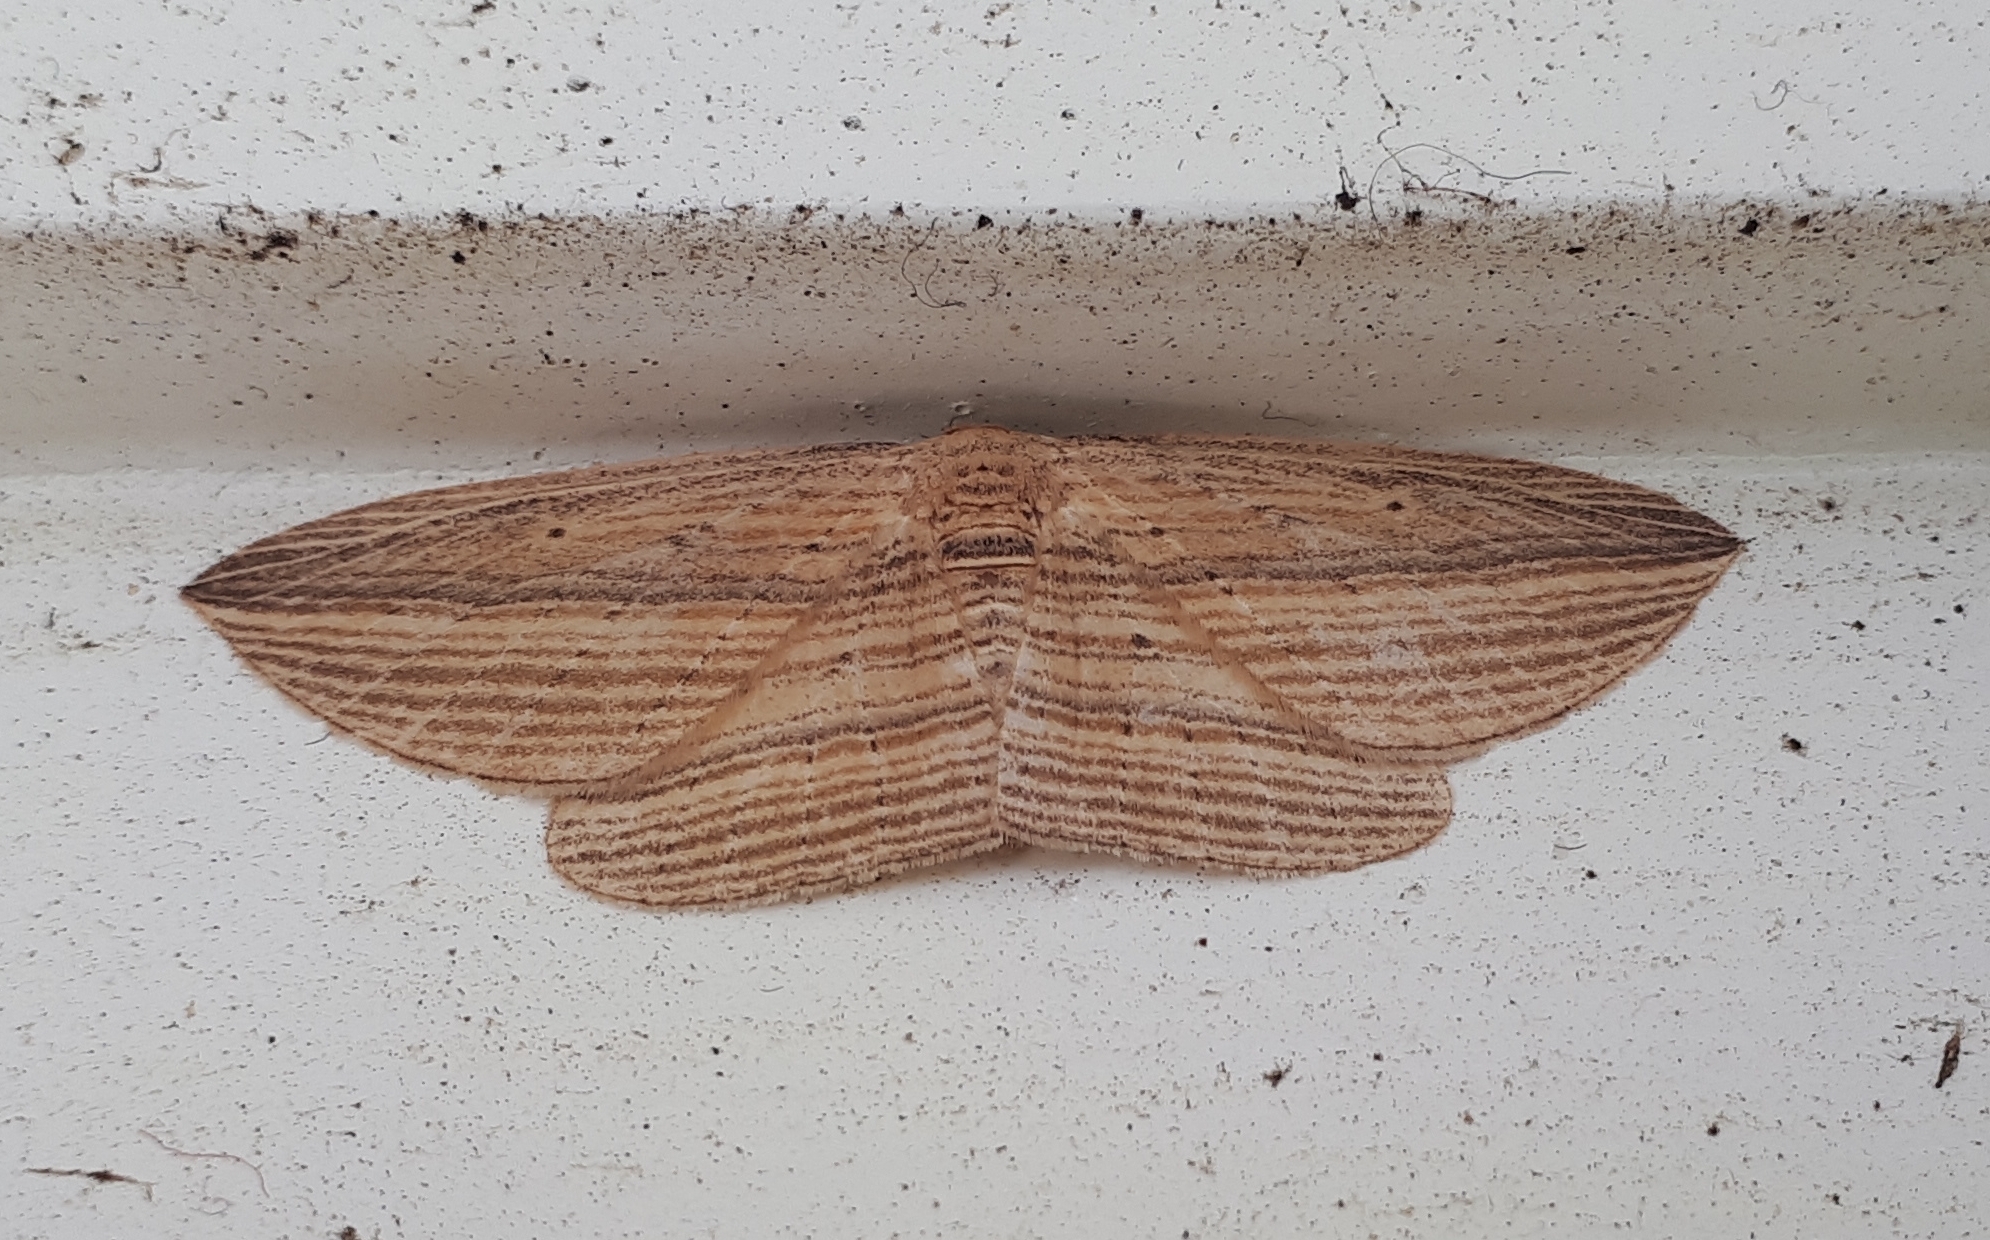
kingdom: Animalia
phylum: Arthropoda
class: Insecta
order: Lepidoptera
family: Geometridae
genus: Epiphryne
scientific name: Epiphryne verriculata
